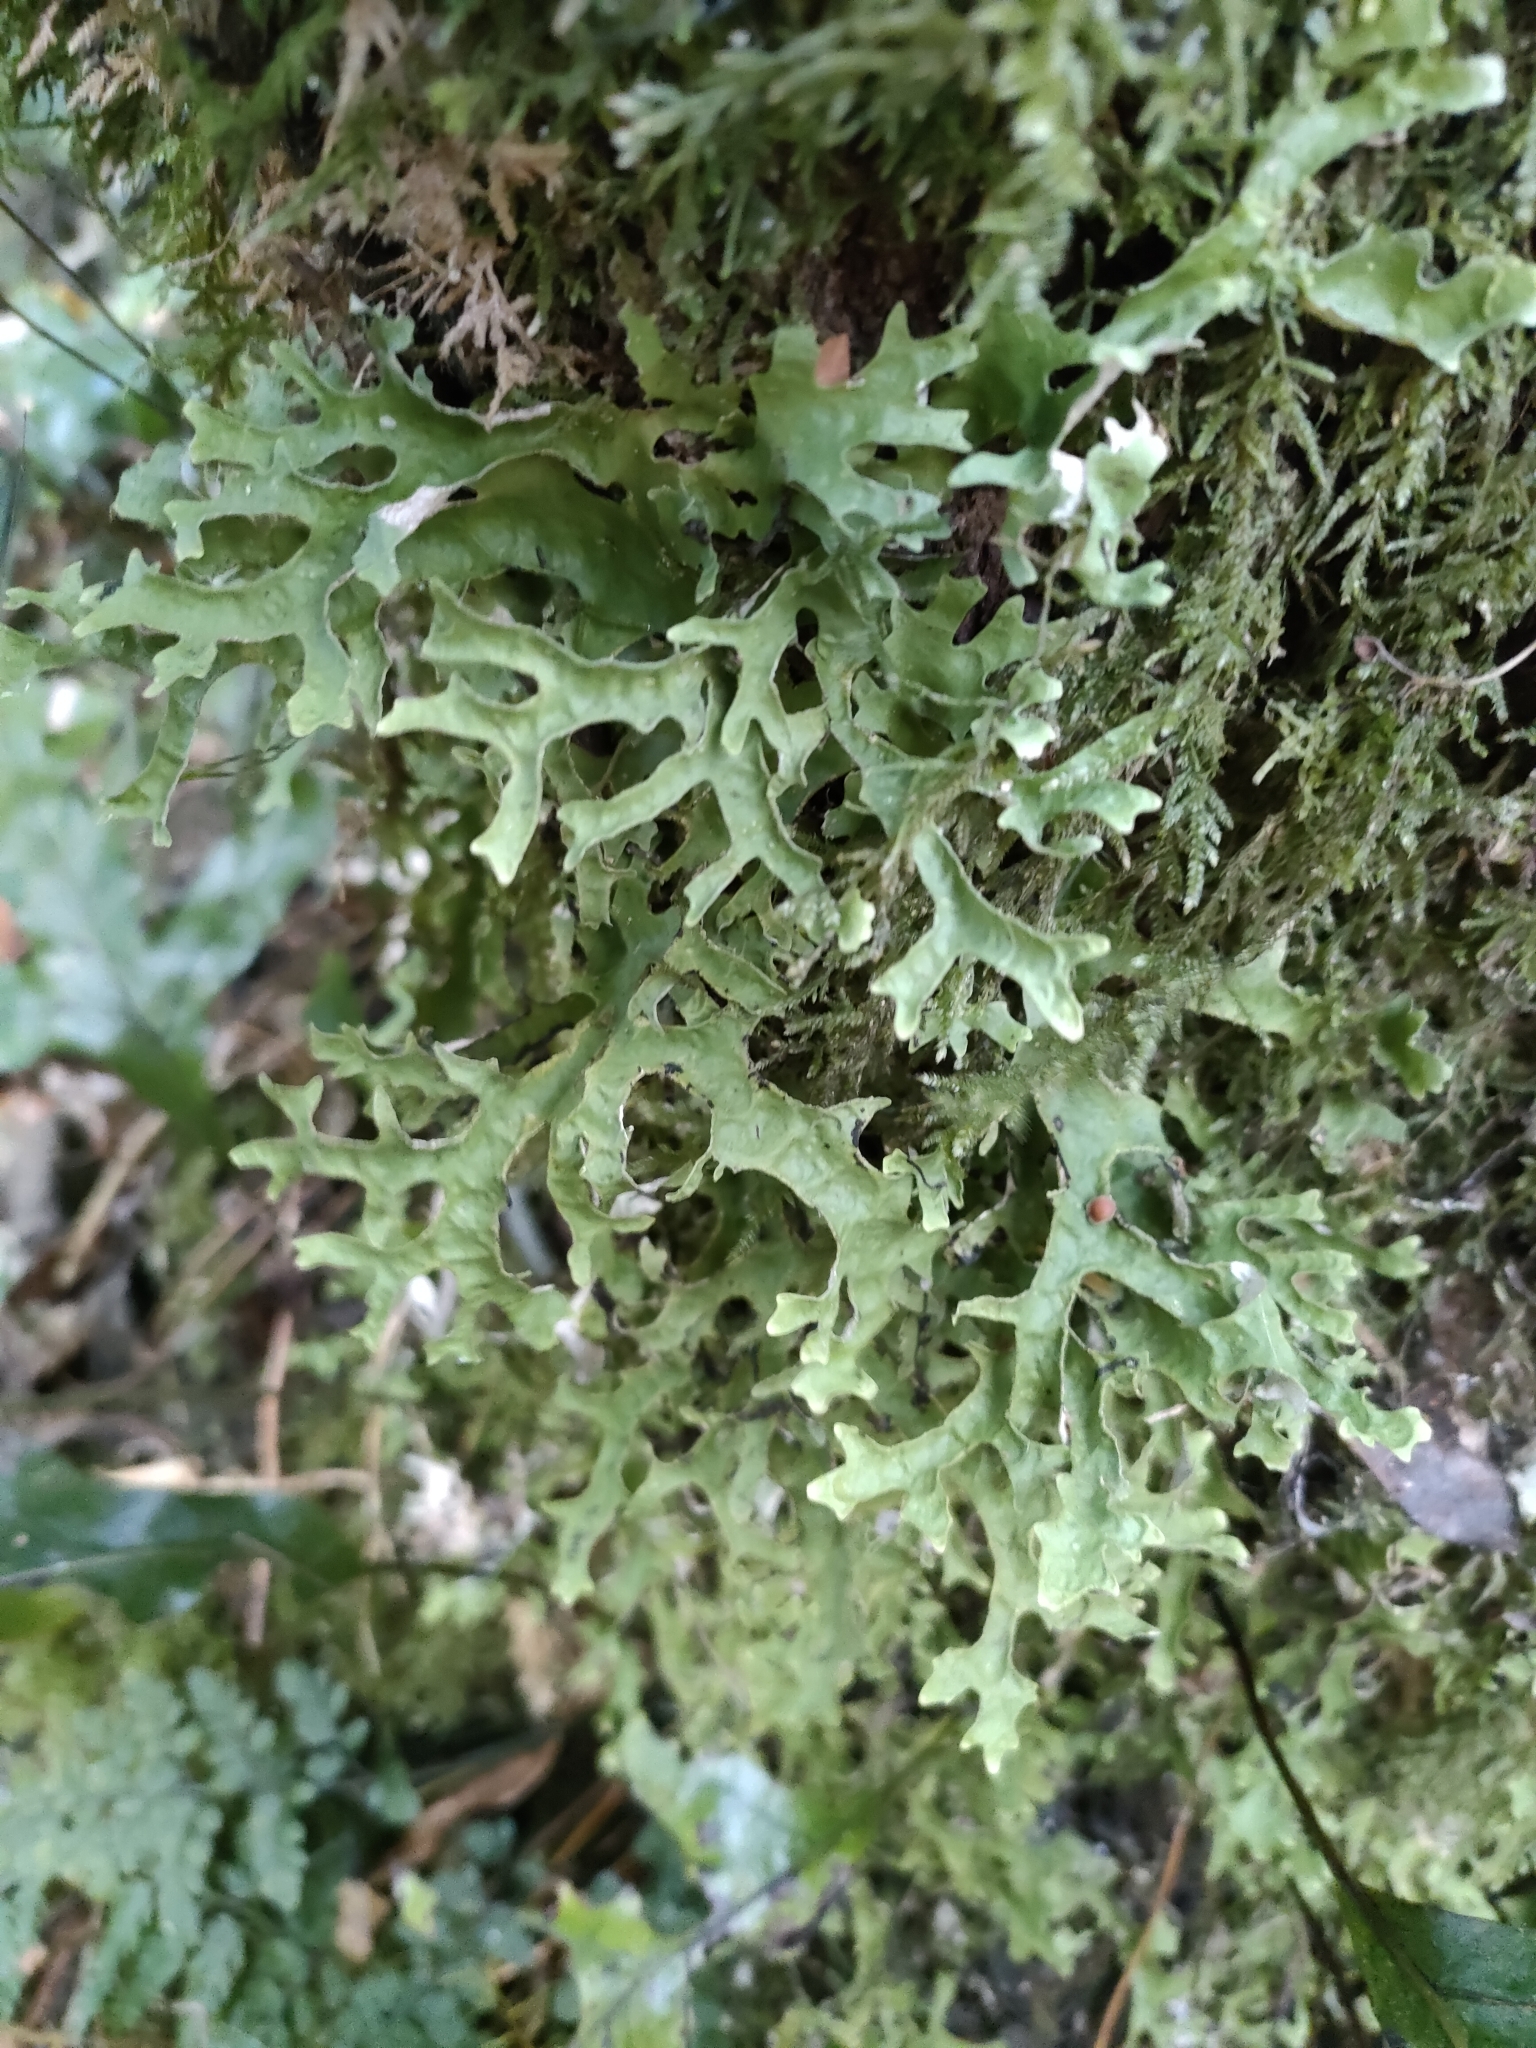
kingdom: Fungi
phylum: Ascomycota
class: Lecanoromycetes
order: Peltigerales
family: Lobariaceae
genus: Pseudocyphellaria
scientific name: Pseudocyphellaria rufovirescens
